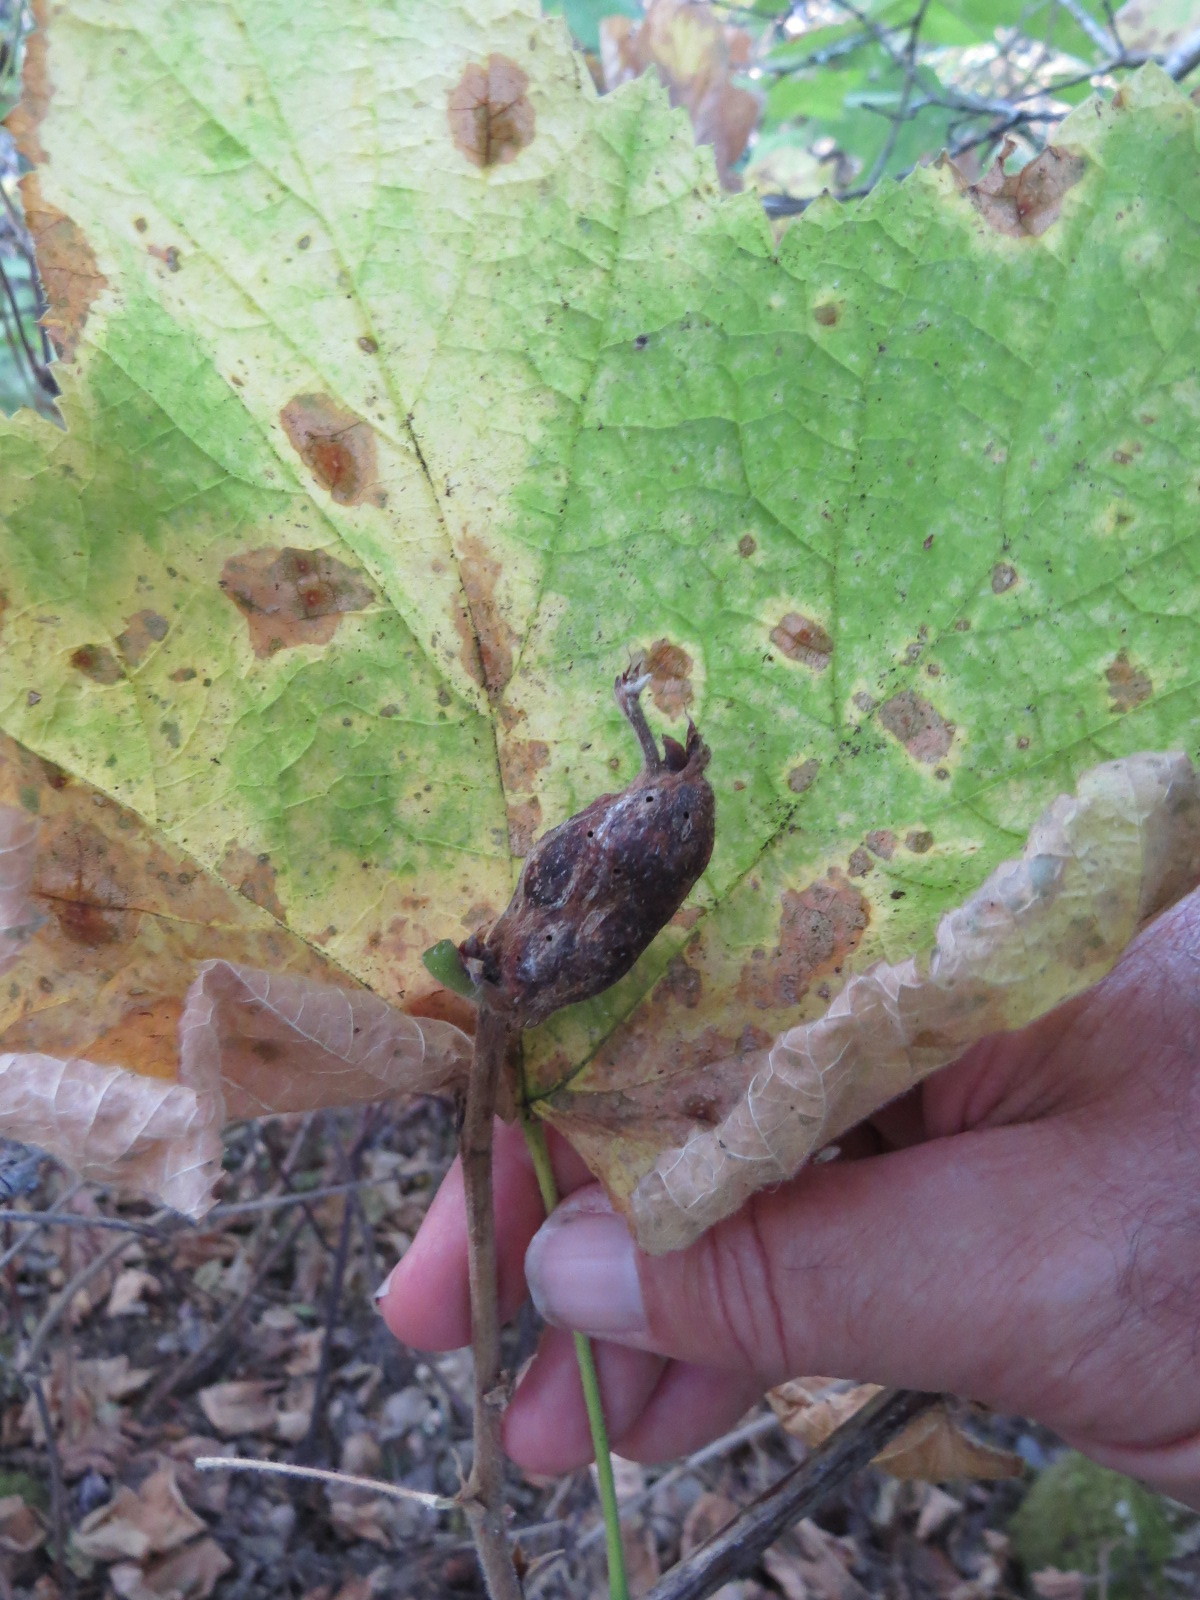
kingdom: Animalia
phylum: Arthropoda
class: Insecta
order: Hymenoptera
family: Cynipidae
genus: Diastrophus
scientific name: Diastrophus
